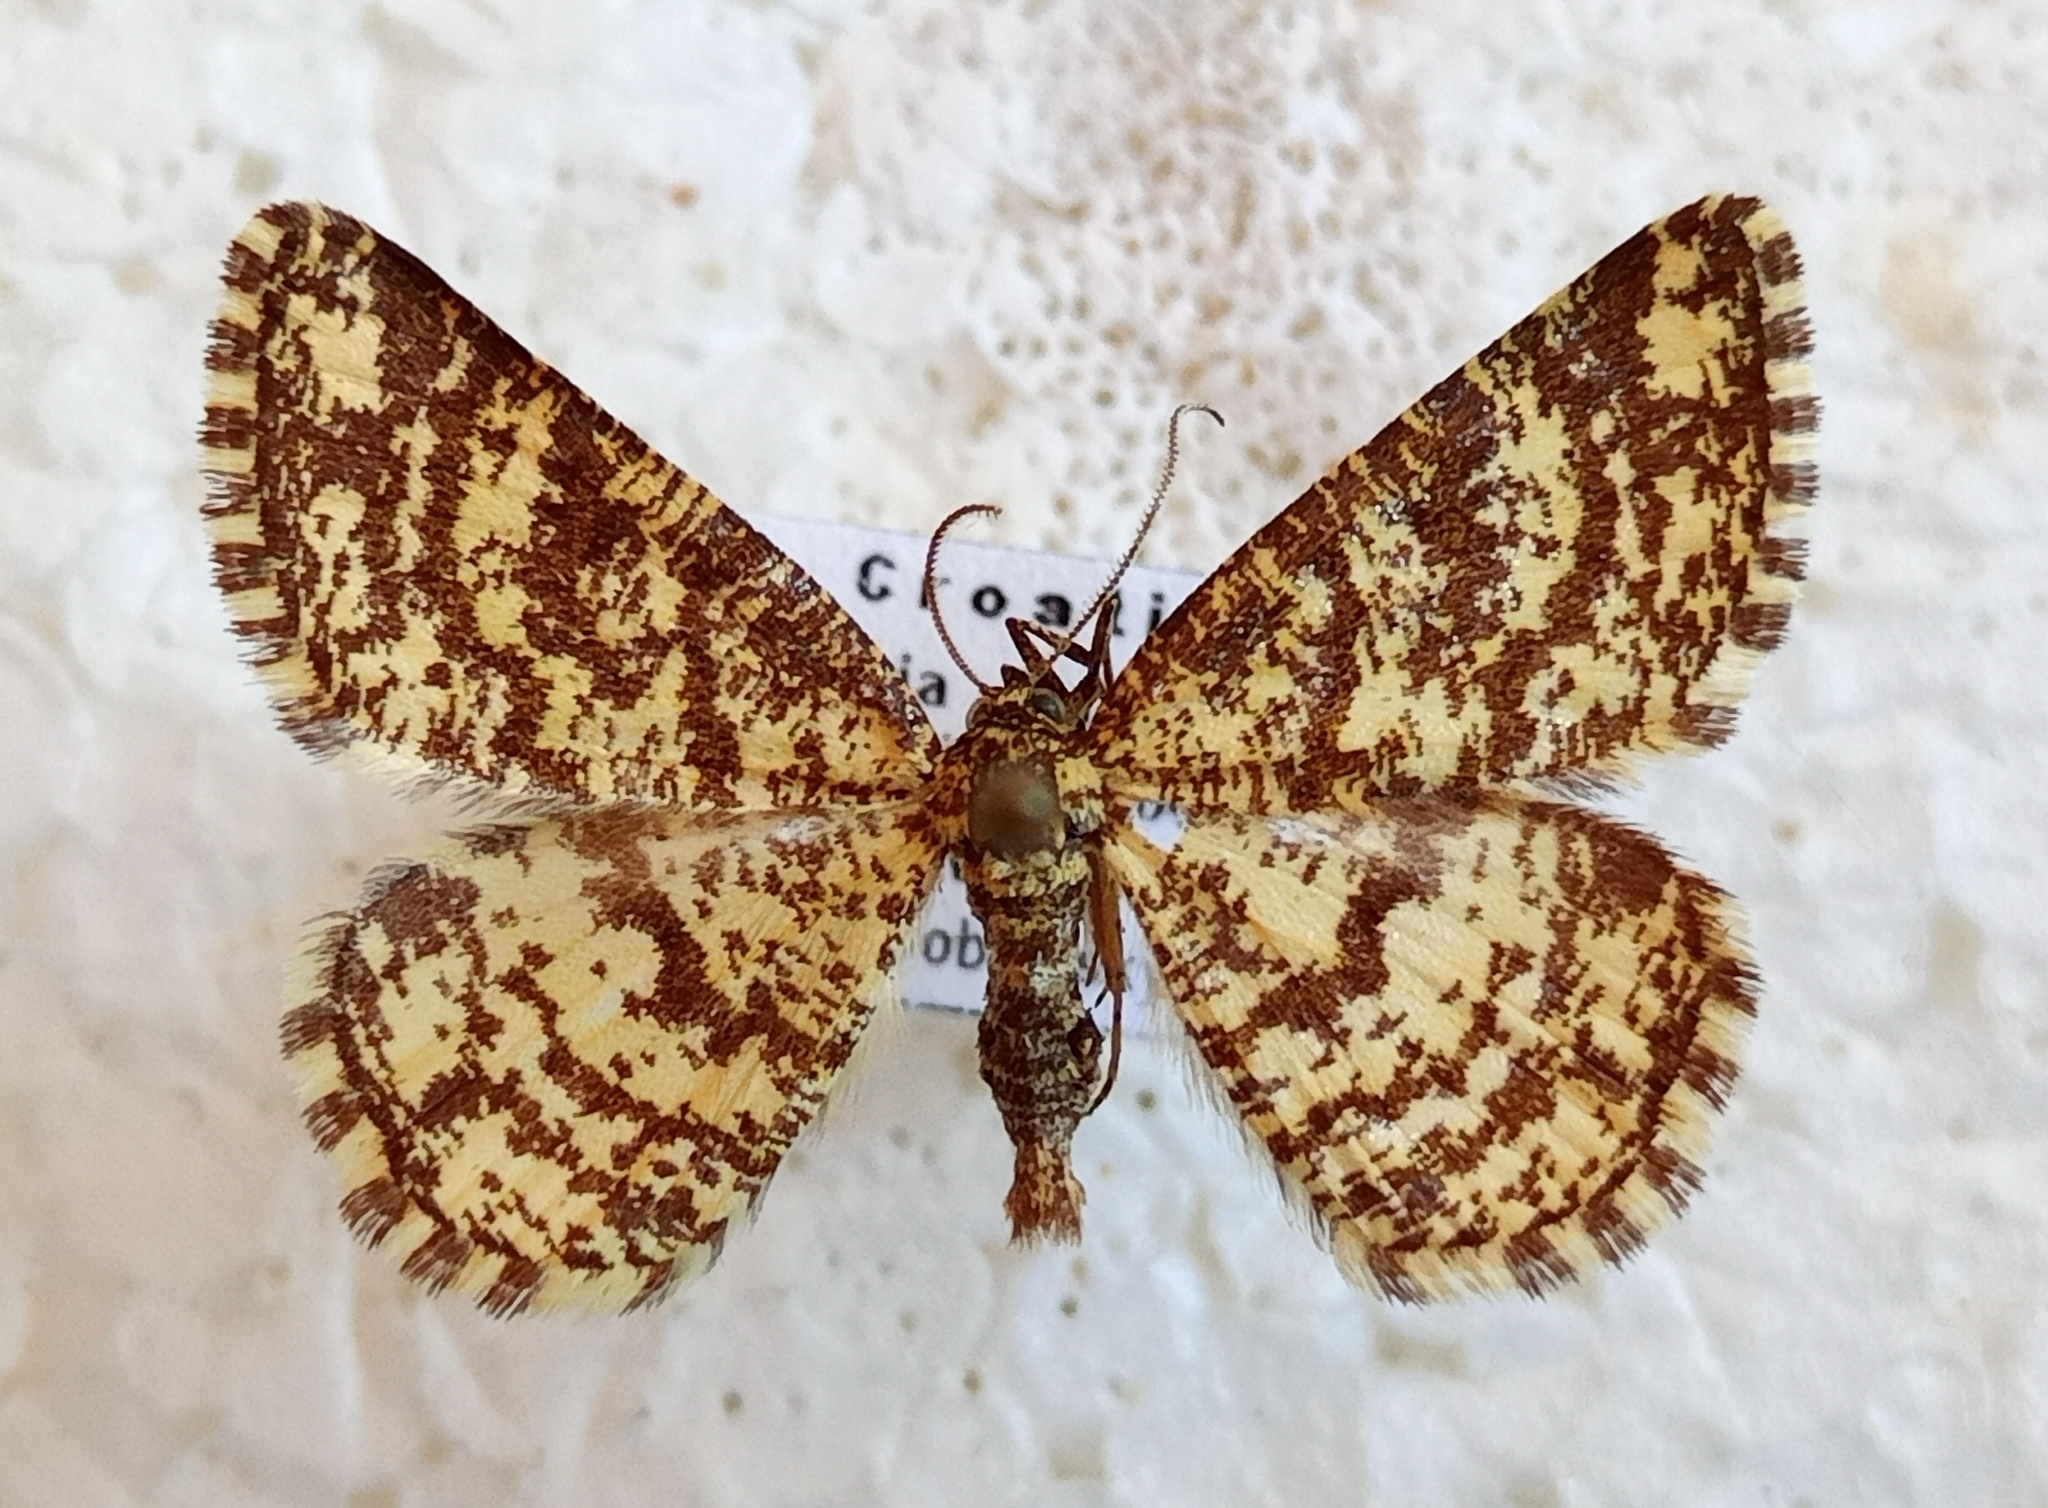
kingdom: Animalia
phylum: Arthropoda
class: Insecta
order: Lepidoptera
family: Geometridae
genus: Heliomata
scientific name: Heliomata glarearia
